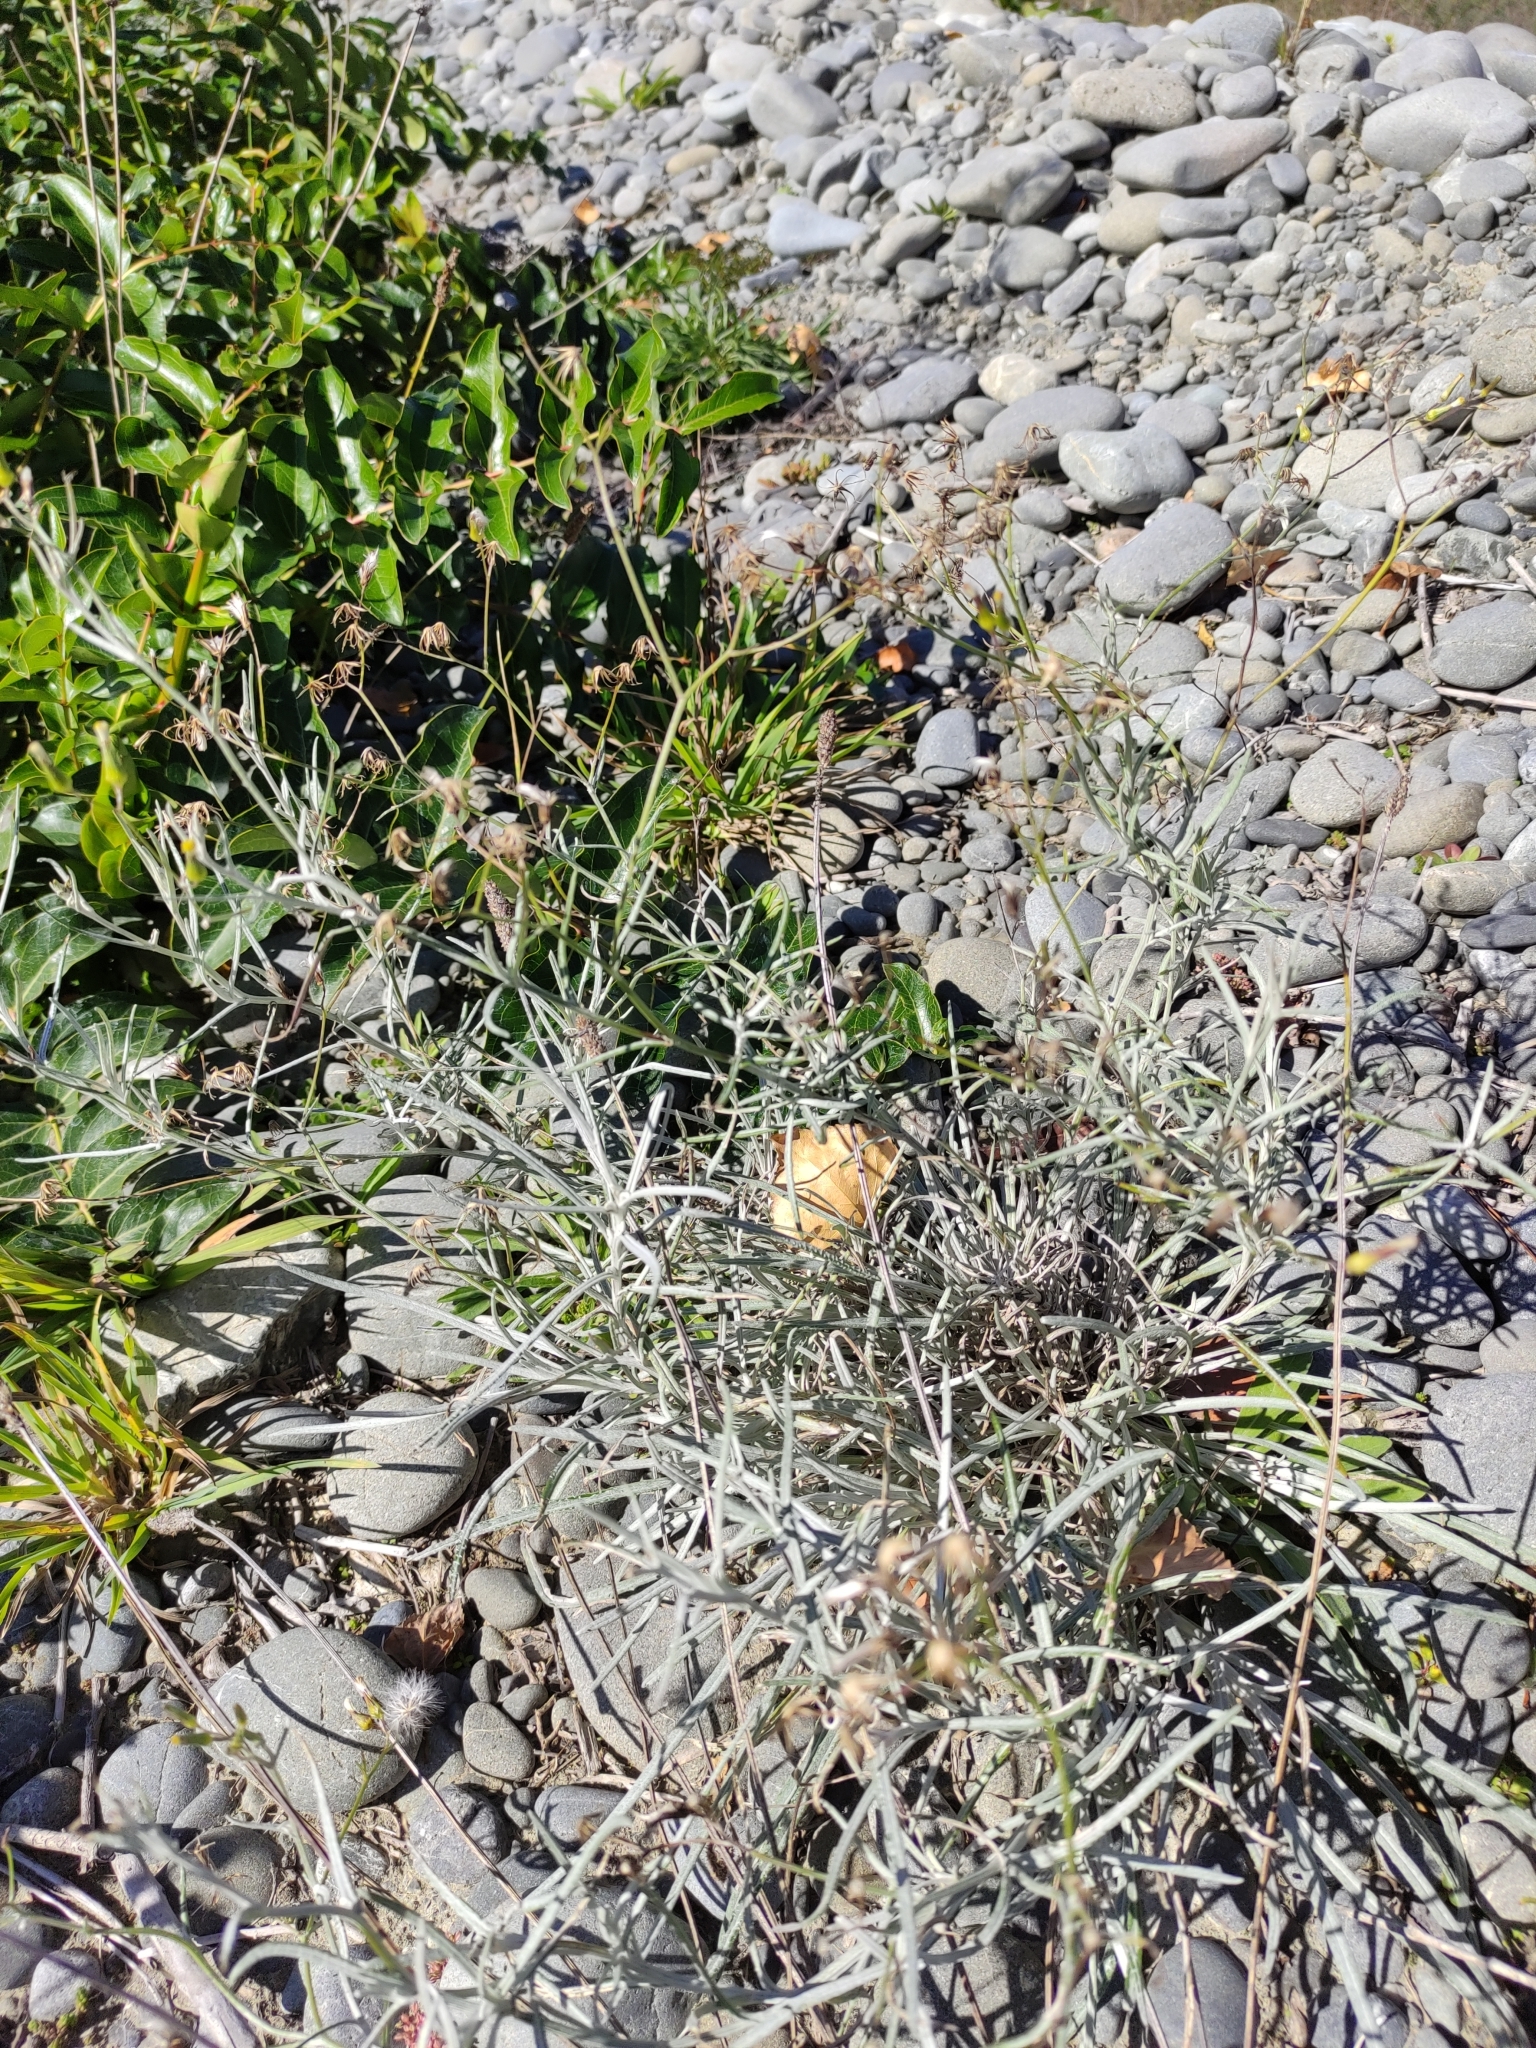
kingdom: Plantae
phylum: Tracheophyta
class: Magnoliopsida
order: Asterales
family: Asteraceae
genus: Senecio
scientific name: Senecio quadridentatus
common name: Cotton fireweed
